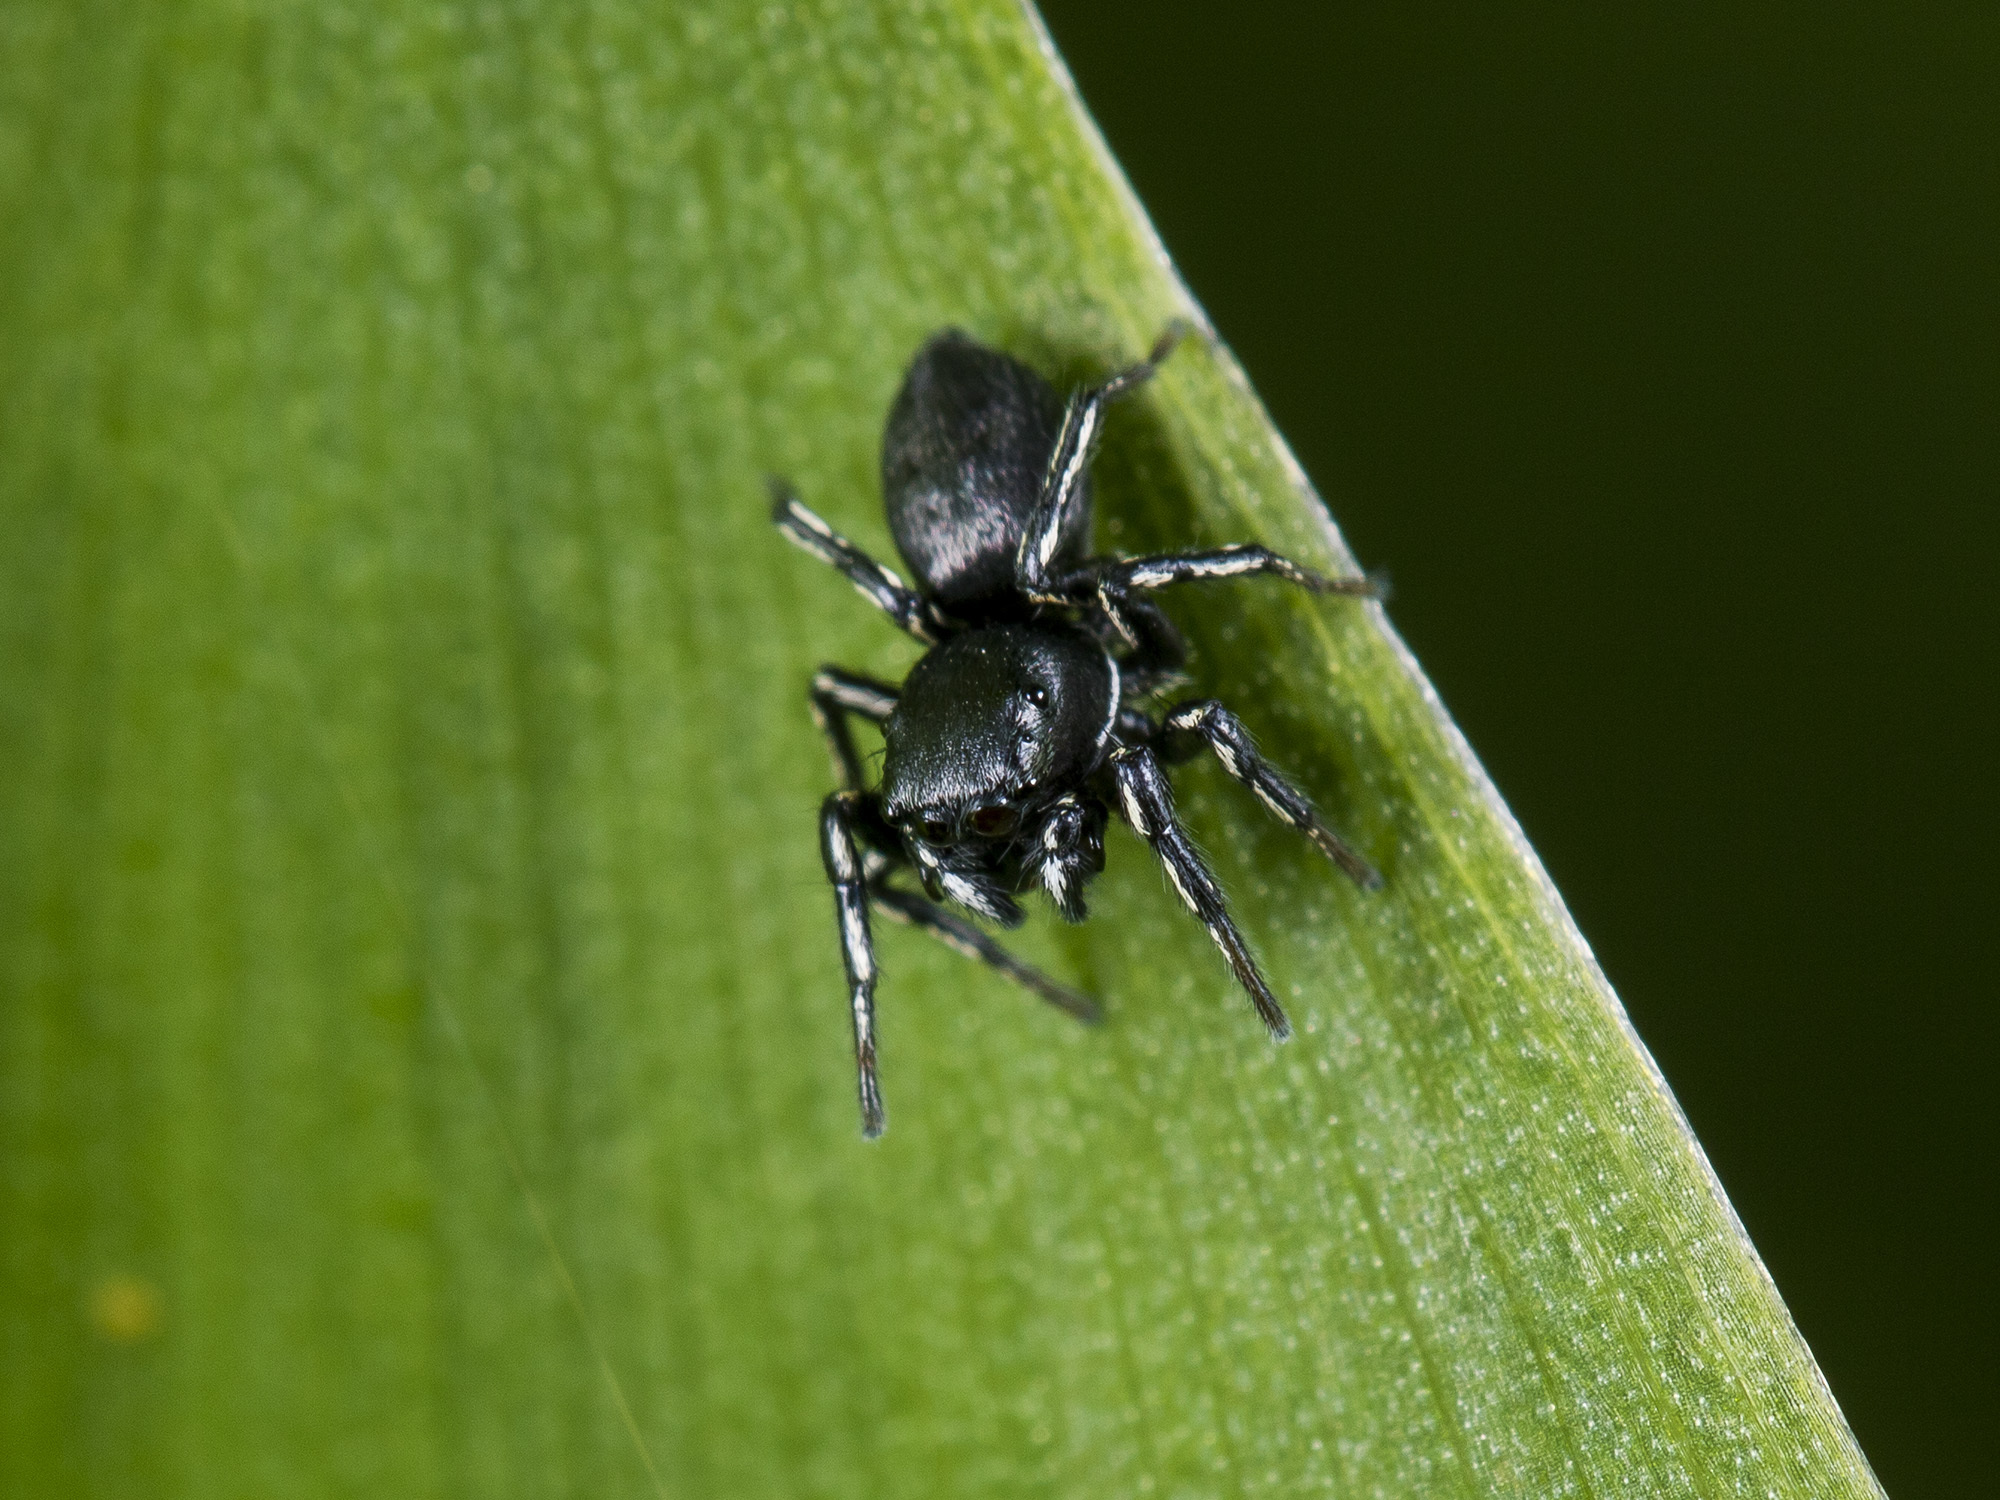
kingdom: Animalia
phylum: Arthropoda
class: Arachnida
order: Araneae
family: Salticidae
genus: Heliophanus
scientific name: Heliophanus potanini
